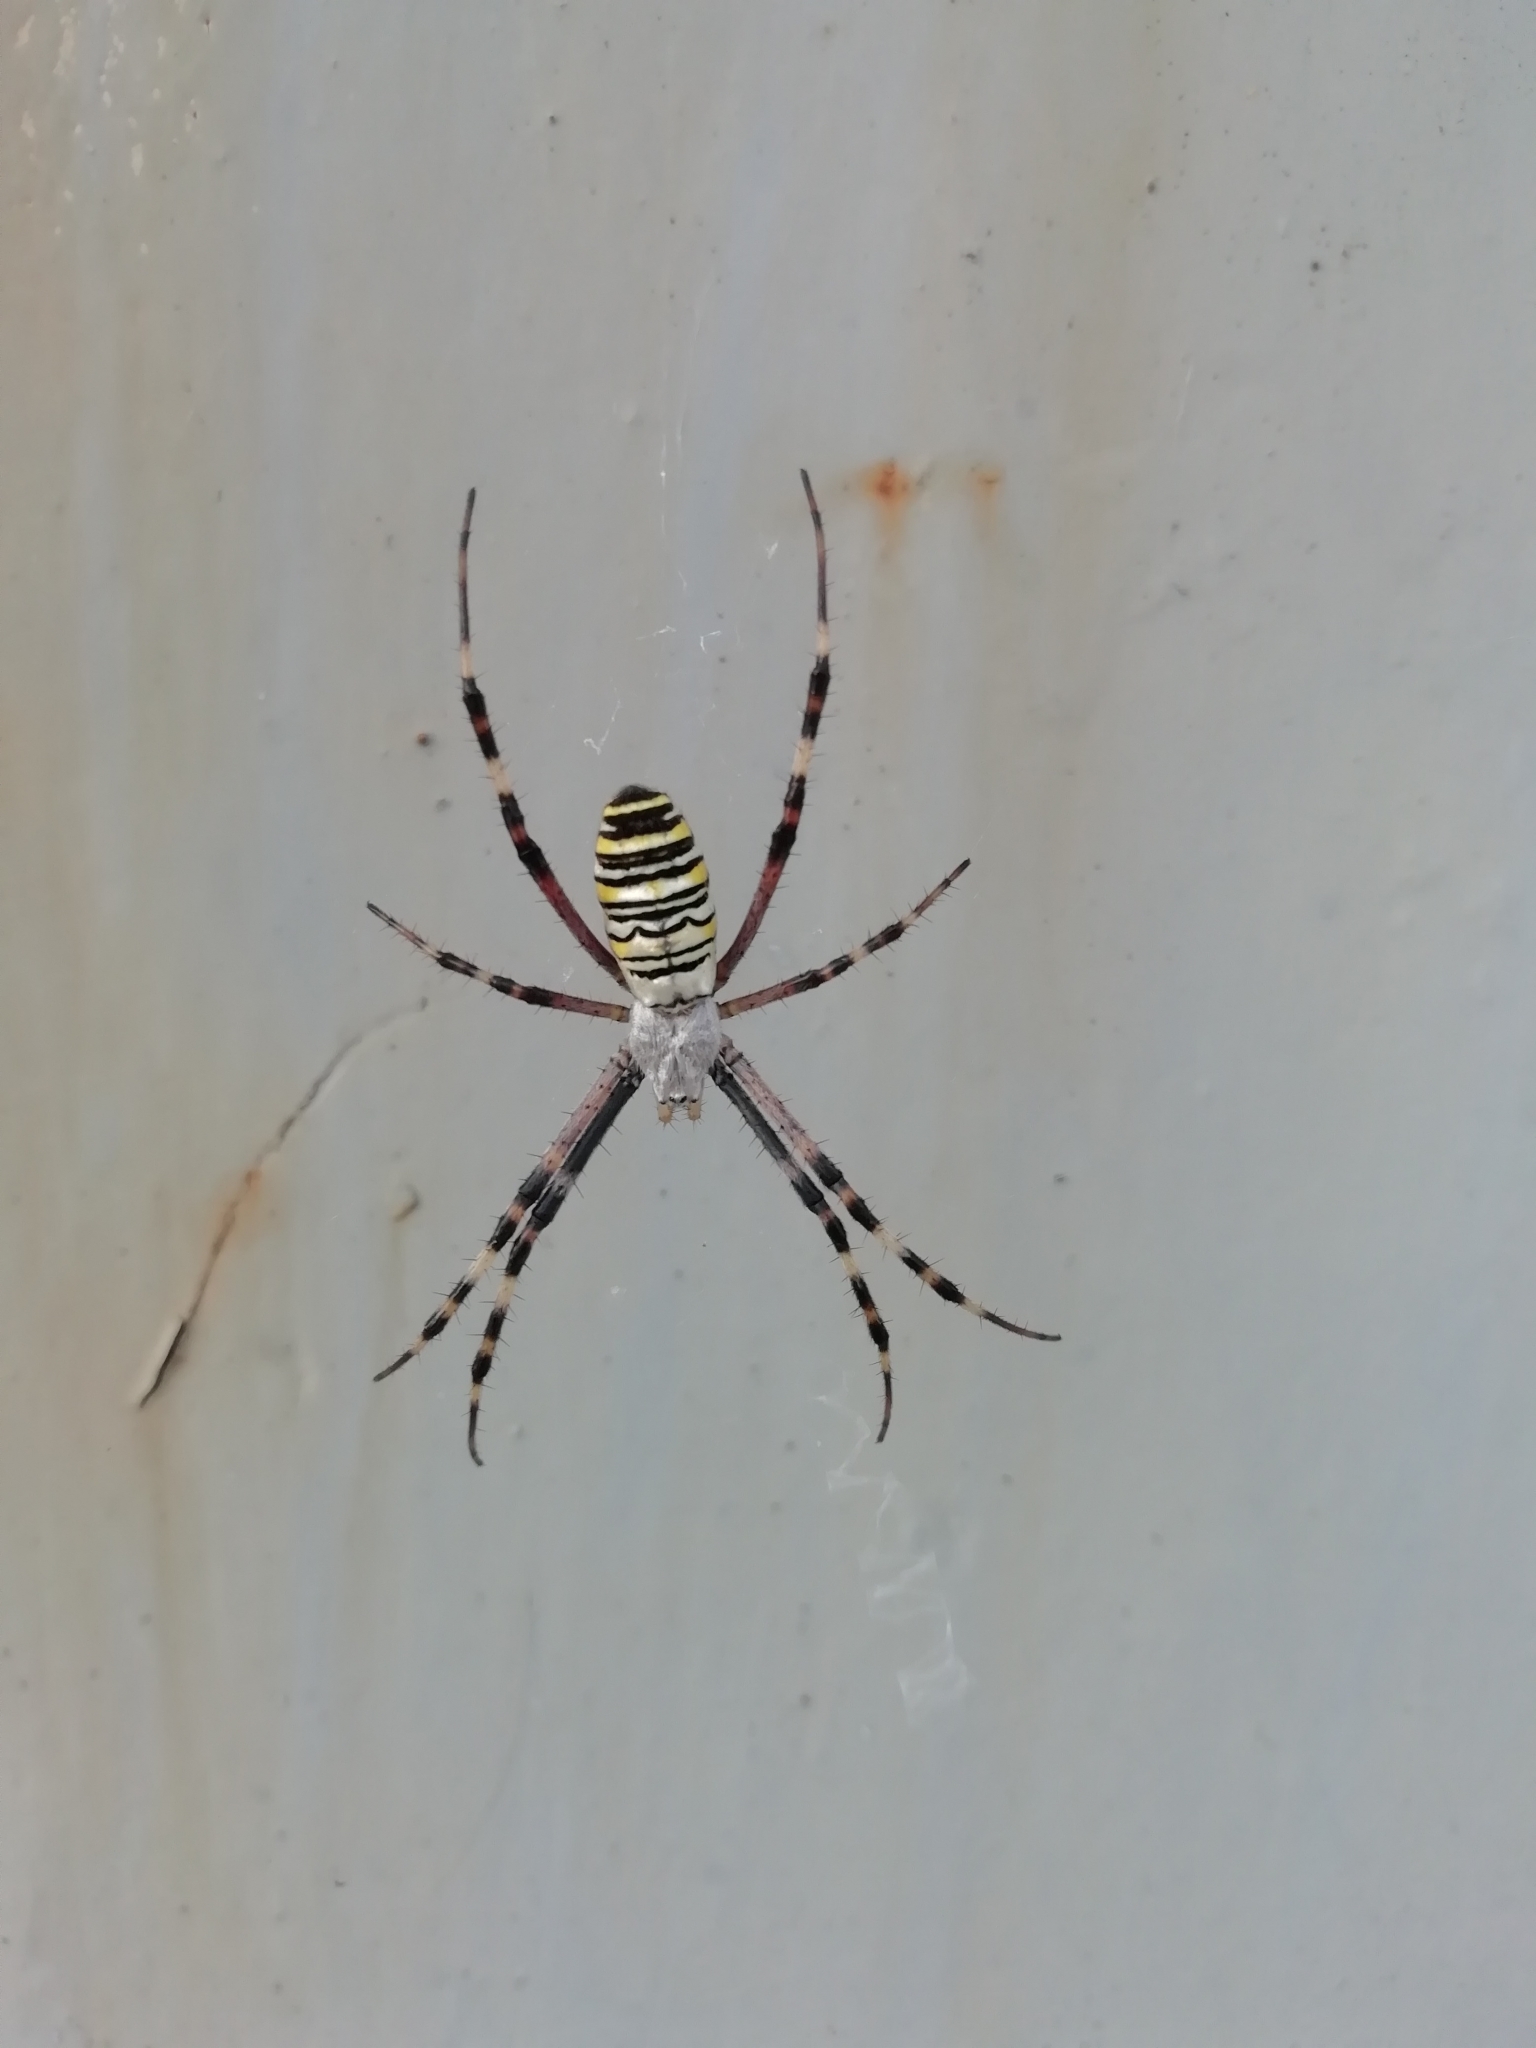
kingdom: Animalia
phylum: Arthropoda
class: Arachnida
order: Araneae
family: Araneidae
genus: Argiope
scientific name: Argiope bruennichi
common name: Wasp spider
